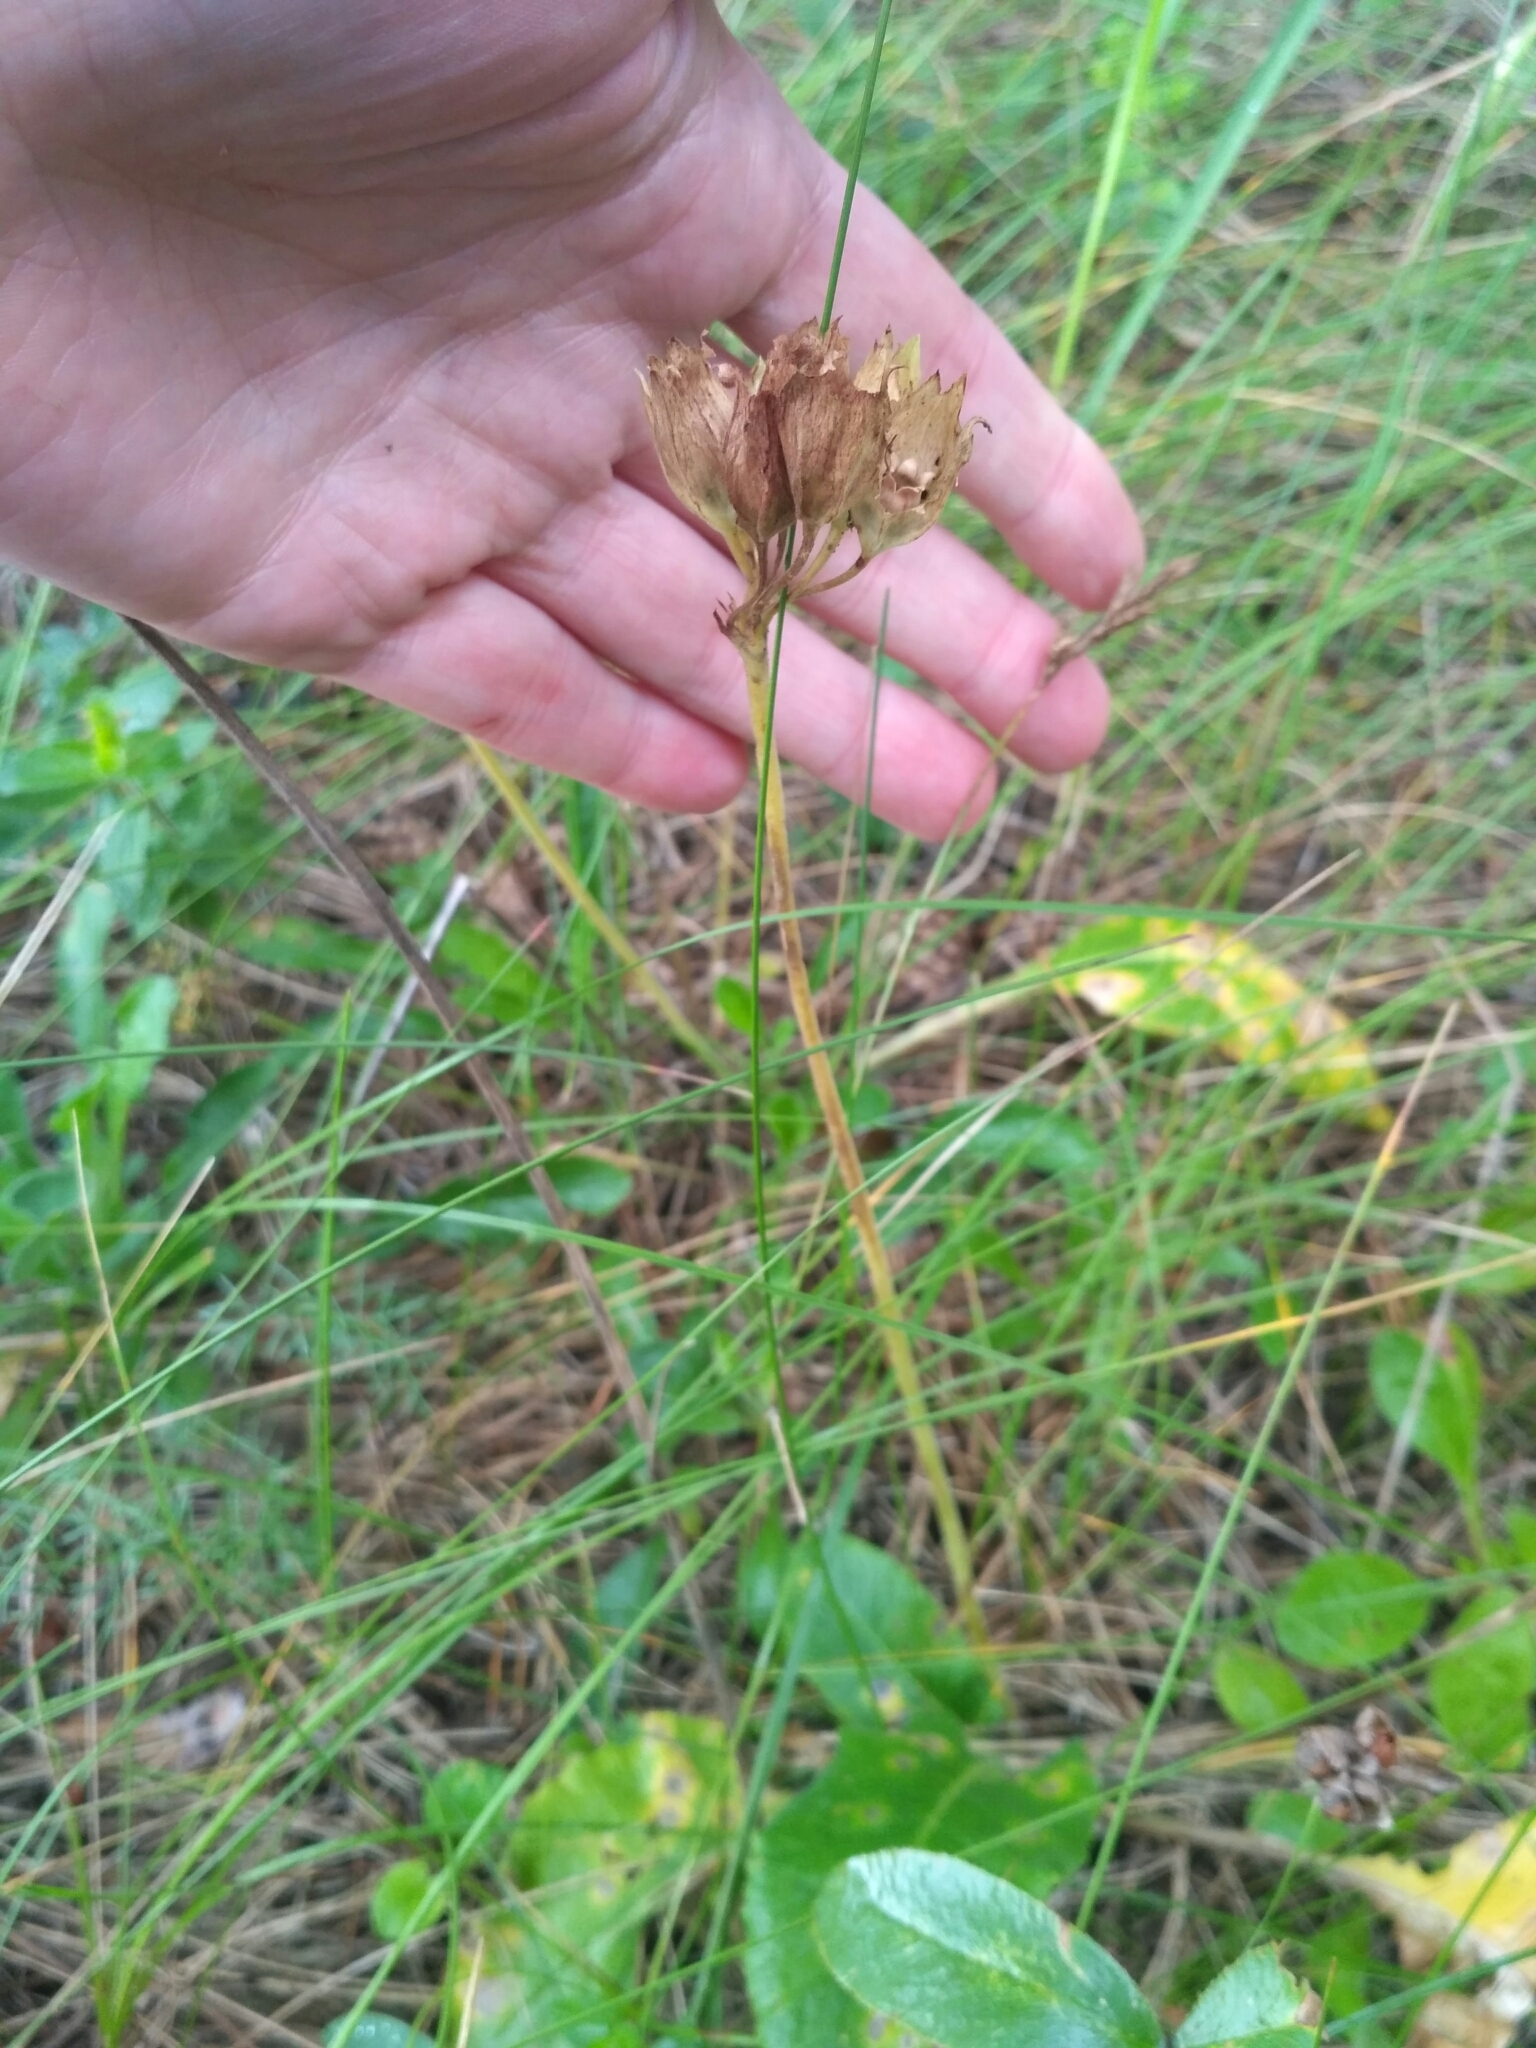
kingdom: Plantae
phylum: Tracheophyta
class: Magnoliopsida
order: Ericales
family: Primulaceae
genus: Primula
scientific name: Primula veris
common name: Cowslip
